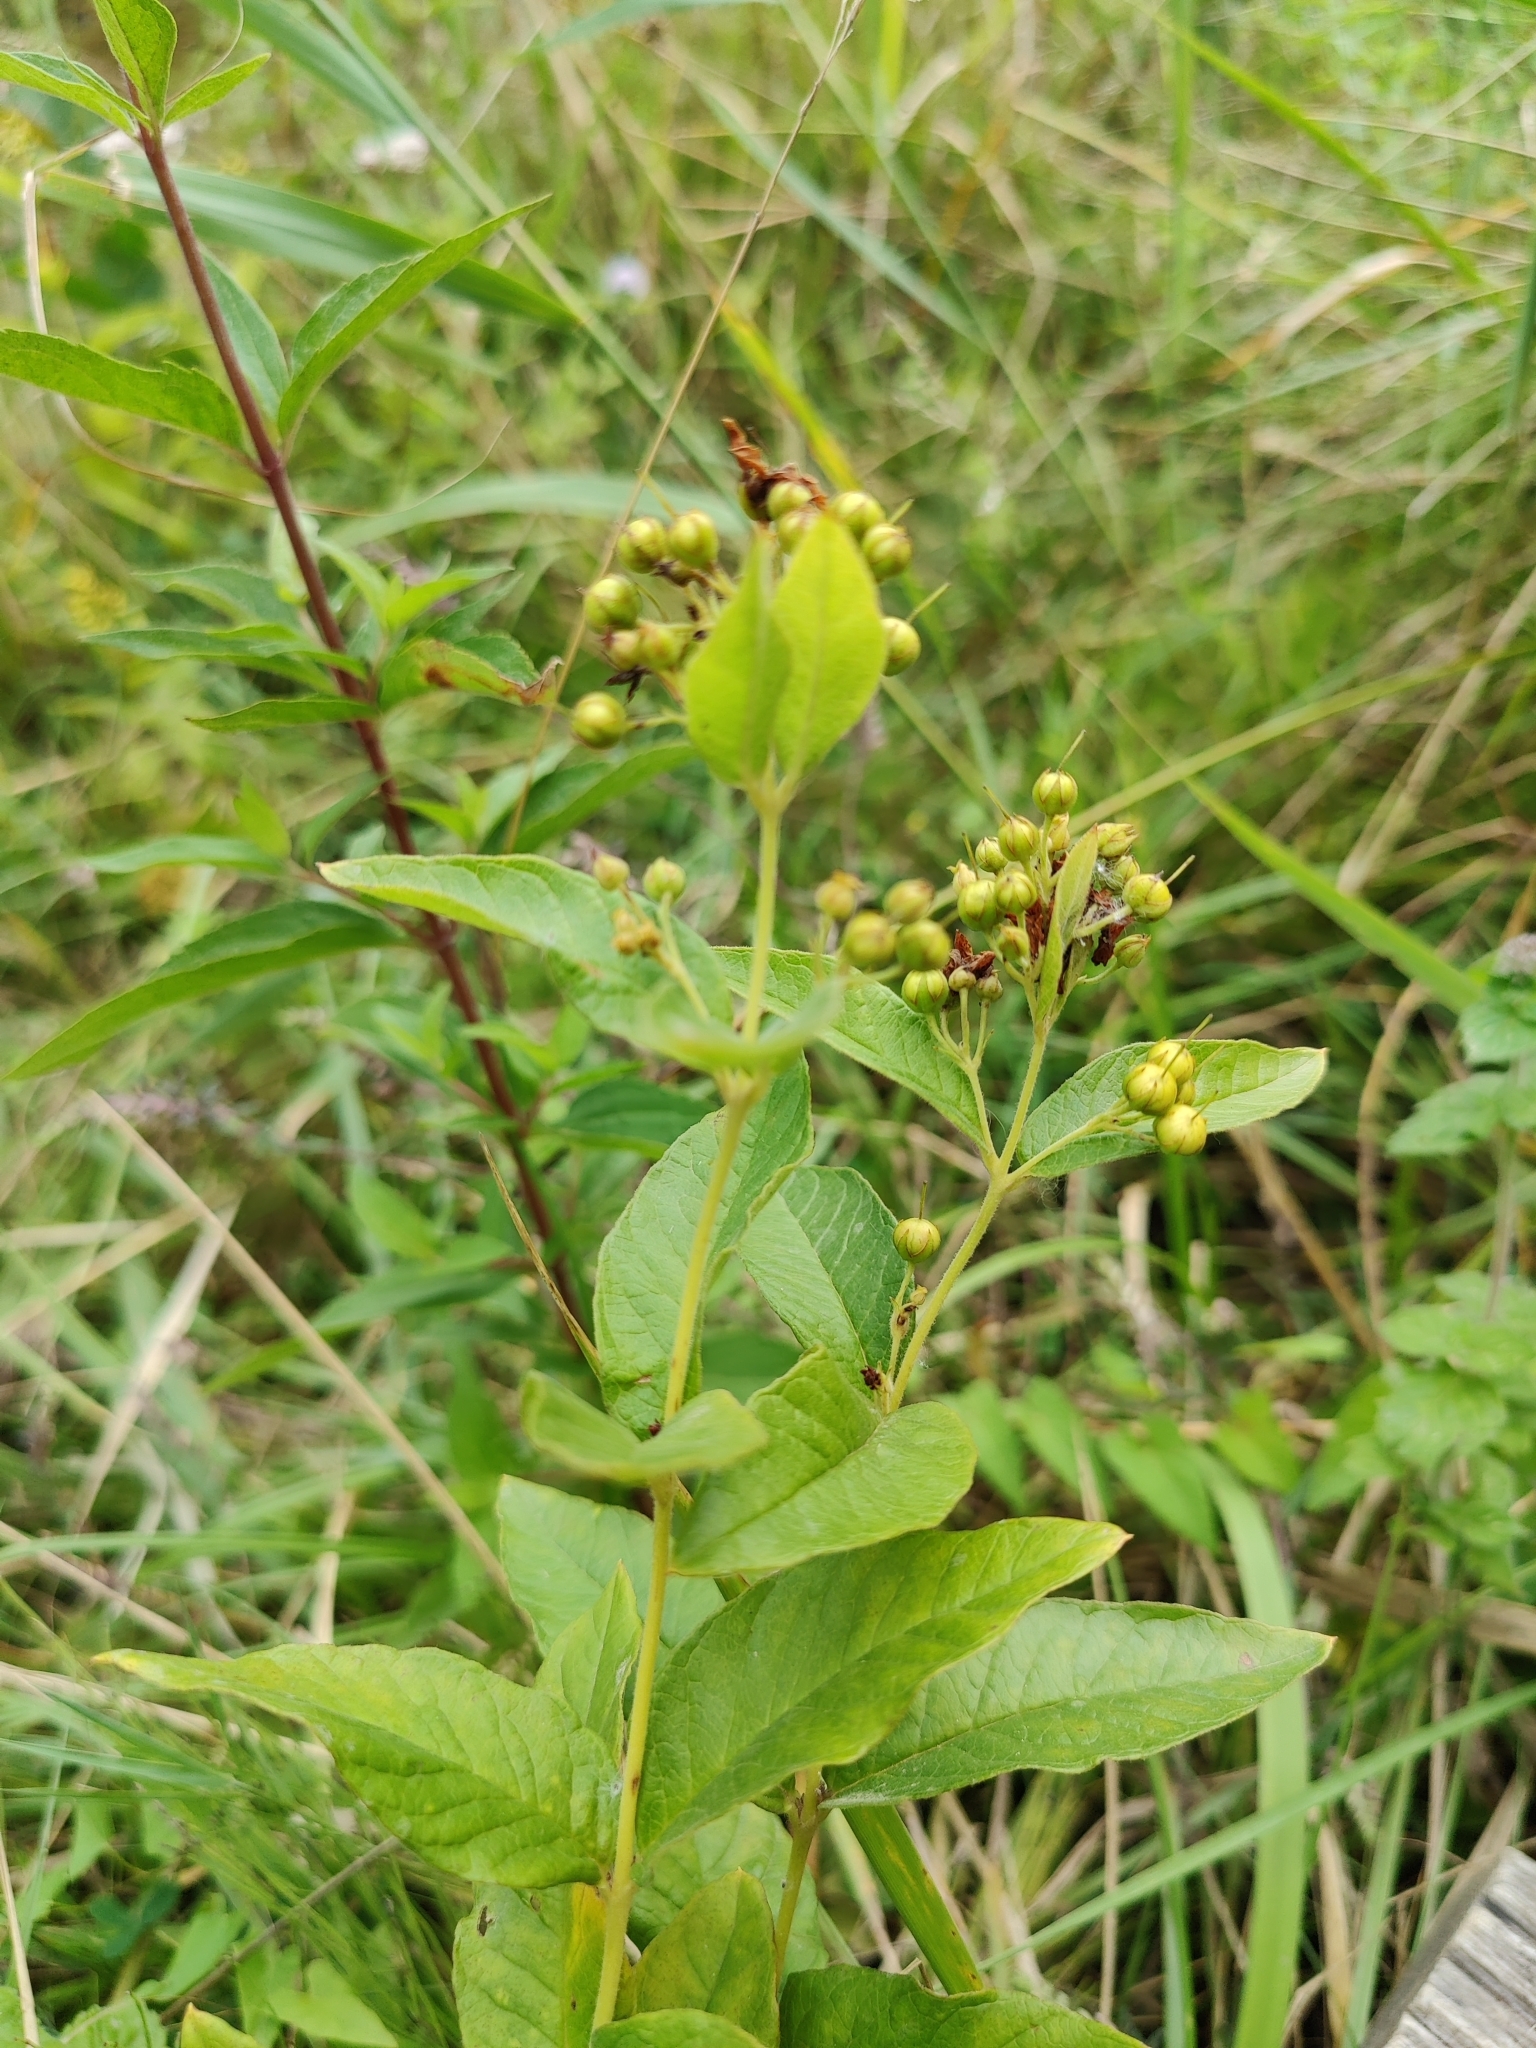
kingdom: Plantae
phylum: Tracheophyta
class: Magnoliopsida
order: Ericales
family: Primulaceae
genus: Lysimachia
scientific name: Lysimachia vulgaris
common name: Yellow loosestrife
